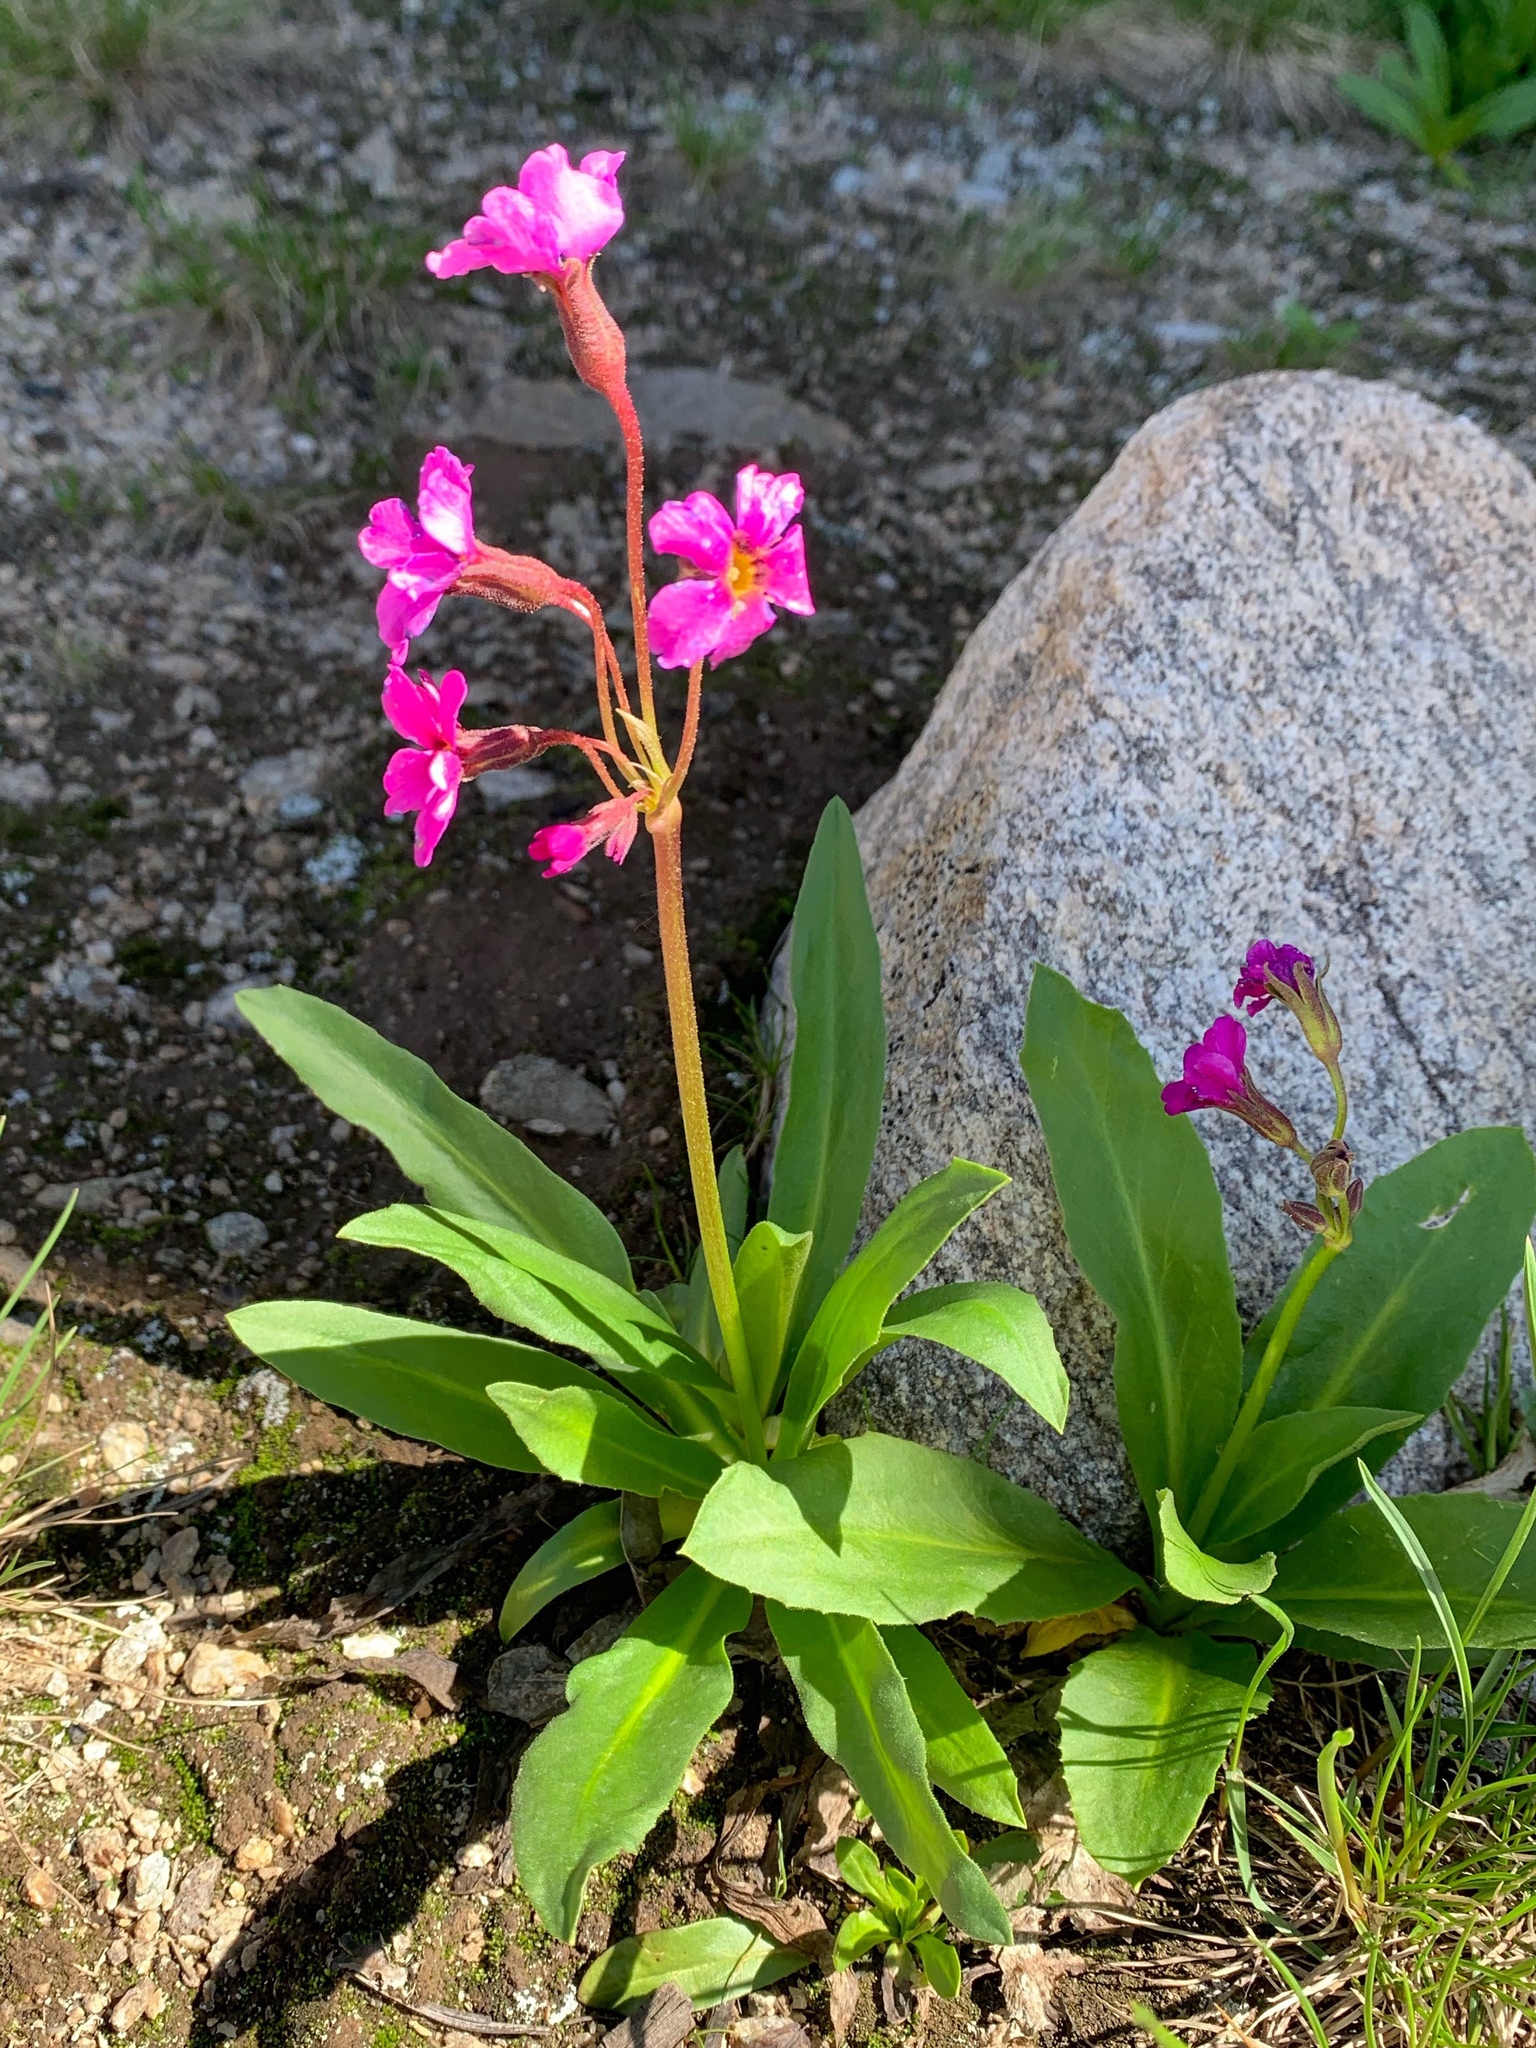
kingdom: Plantae
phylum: Tracheophyta
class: Magnoliopsida
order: Ericales
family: Primulaceae
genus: Primula
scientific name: Primula parryi
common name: Parry's primrose
